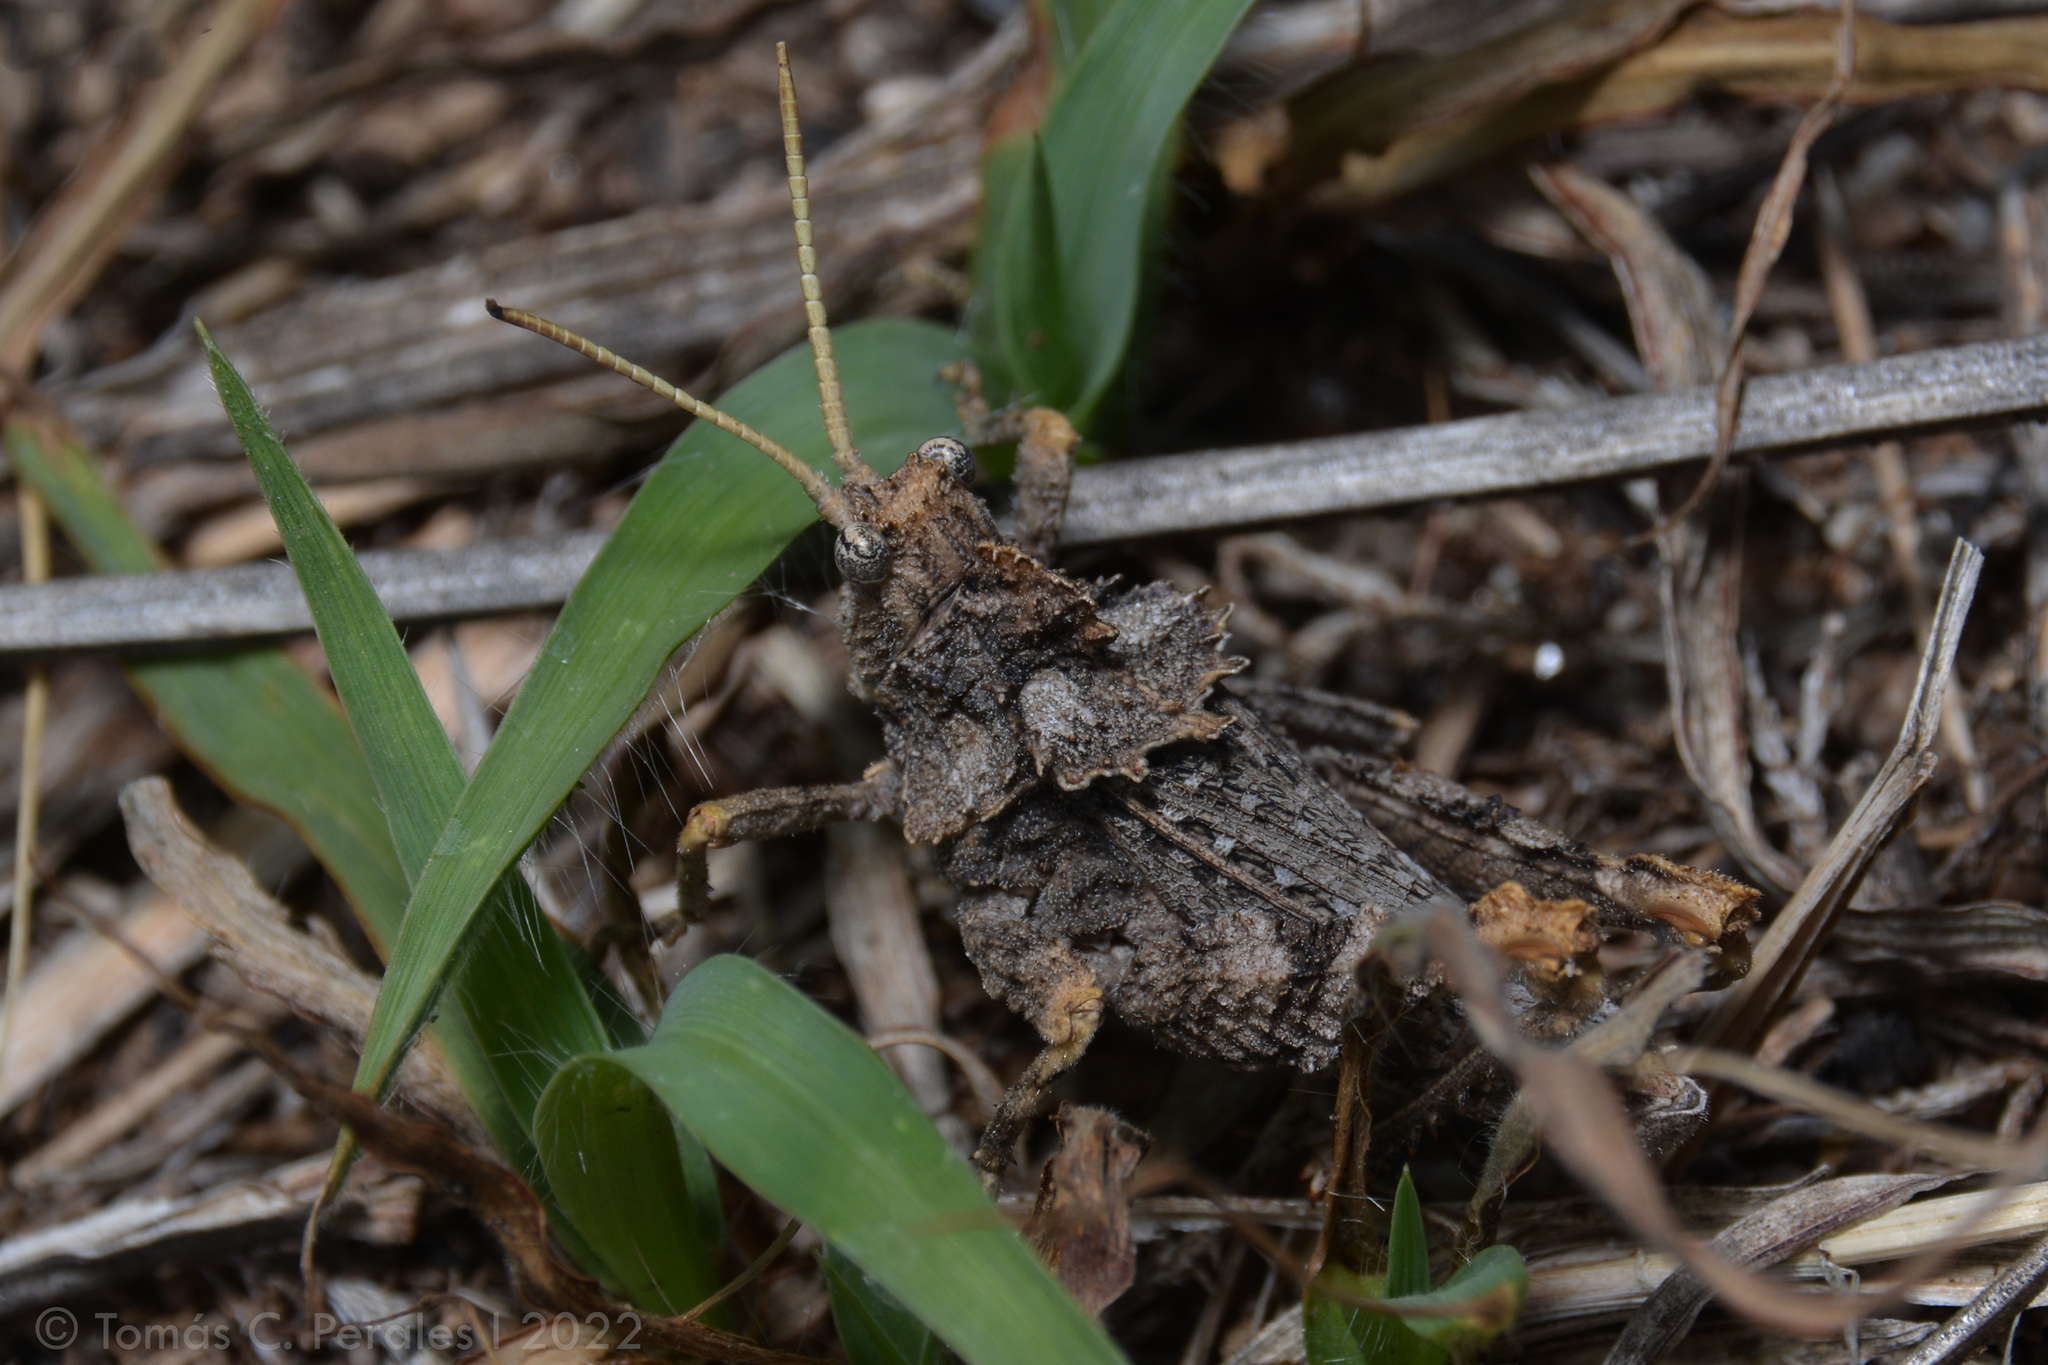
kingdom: Animalia
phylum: Arthropoda
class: Insecta
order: Orthoptera
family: Ommexechidae
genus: Spathalium
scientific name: Spathalium audouinii
